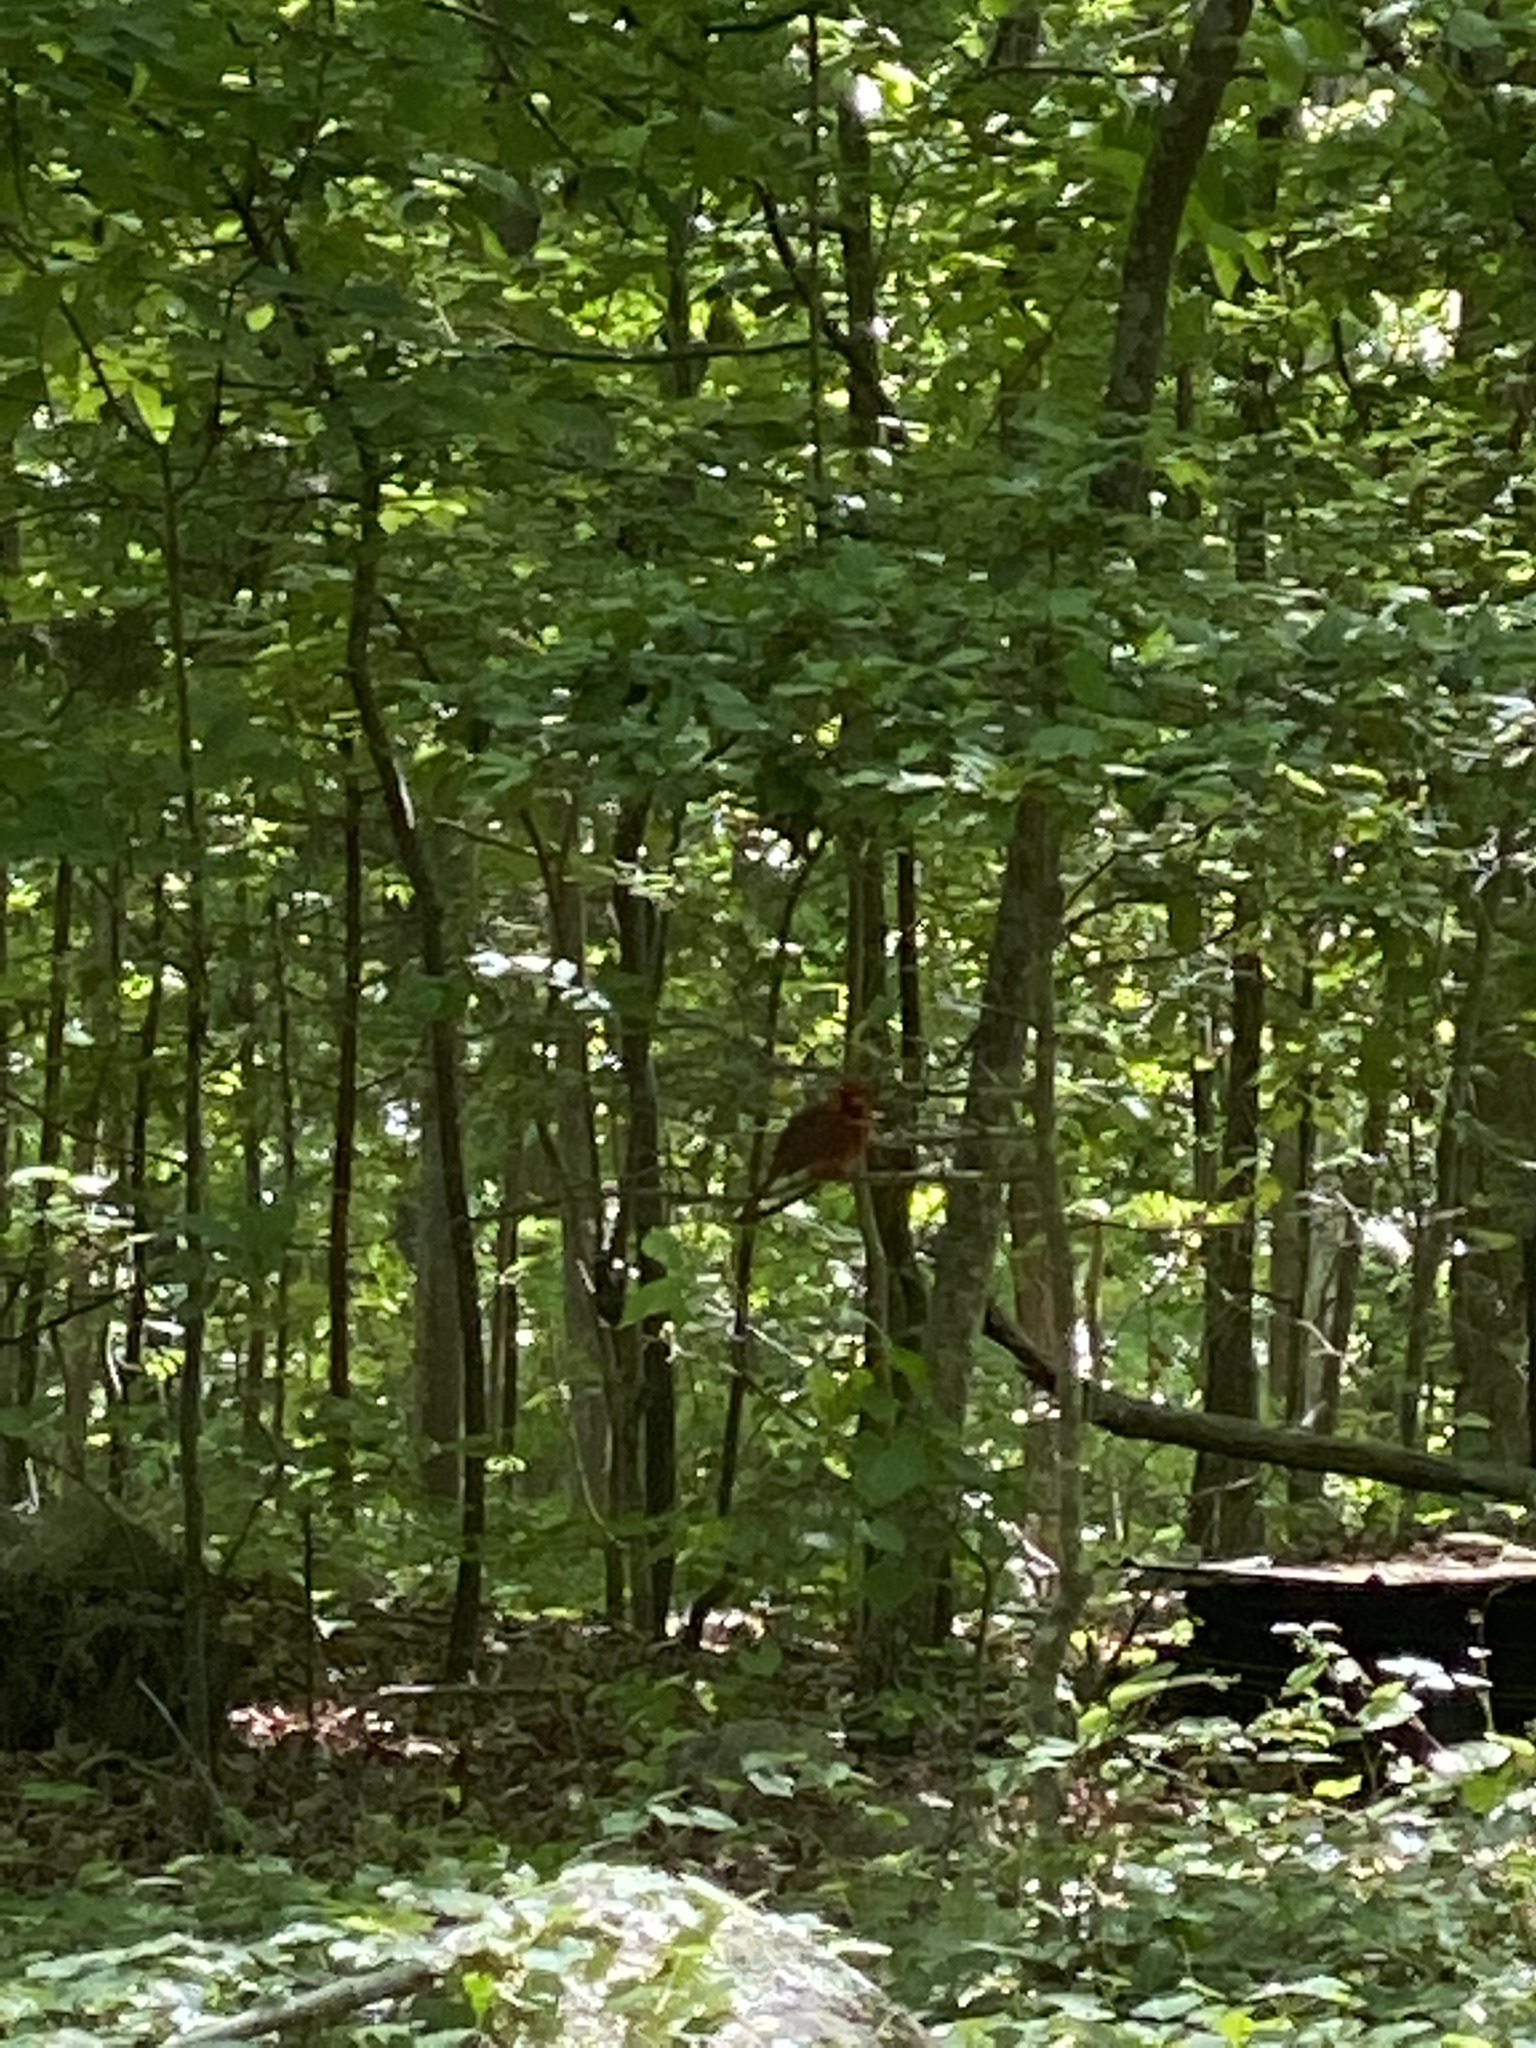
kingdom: Animalia
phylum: Chordata
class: Aves
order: Passeriformes
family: Cardinalidae
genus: Cardinalis
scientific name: Cardinalis cardinalis
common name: Northern cardinal
